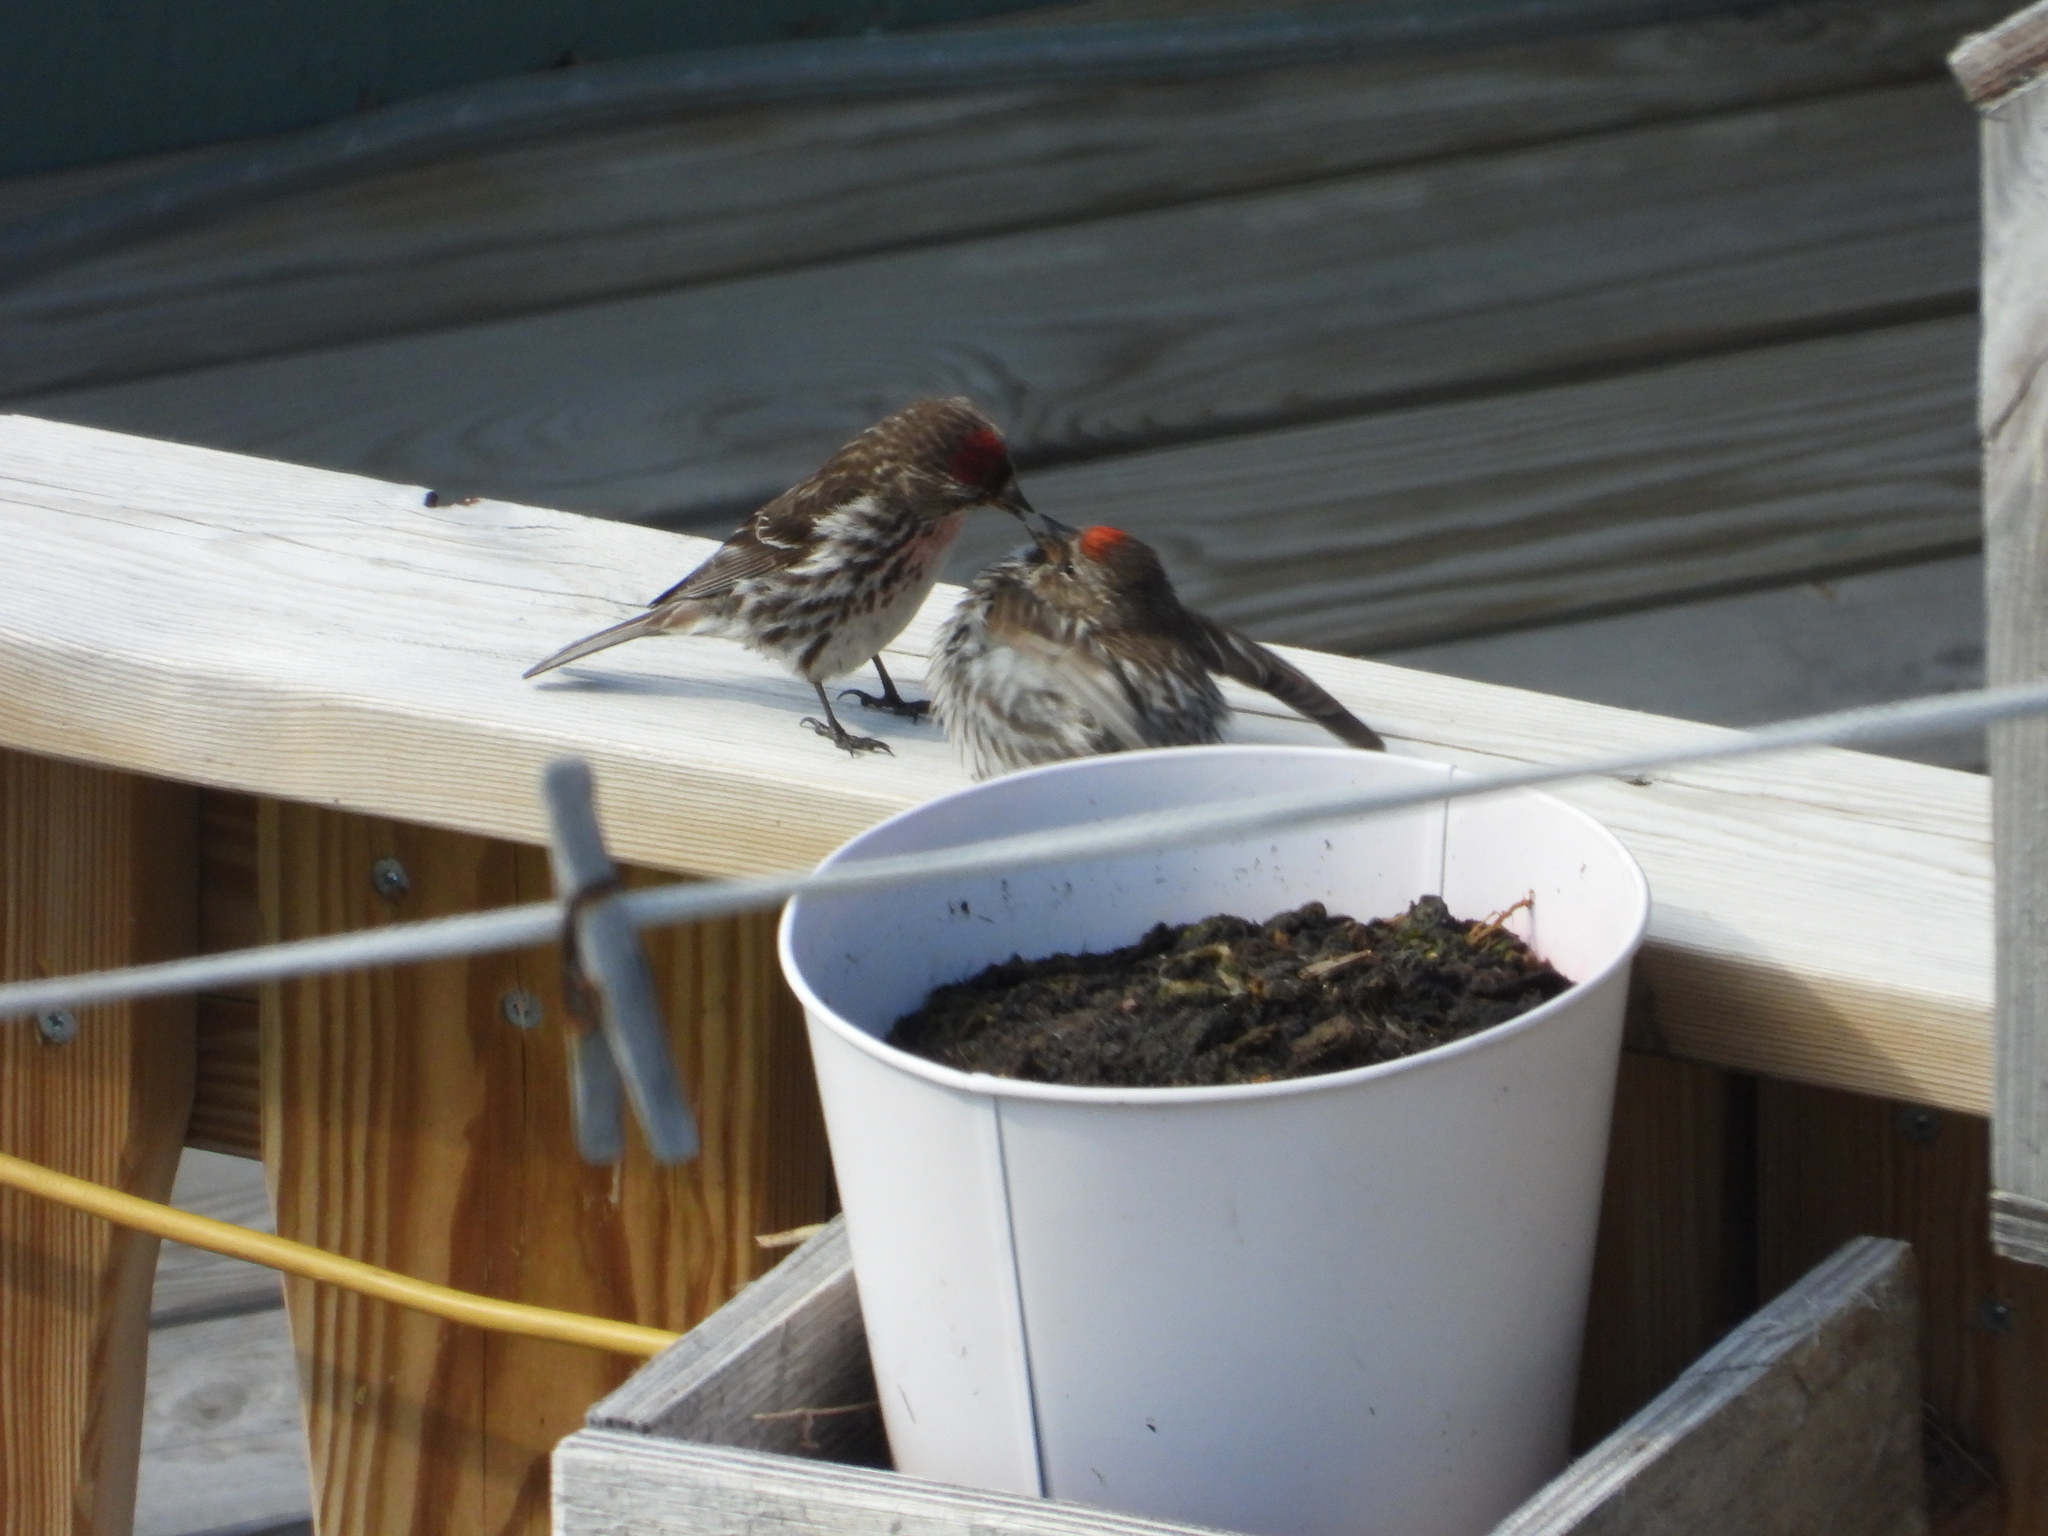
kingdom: Animalia
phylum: Chordata
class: Aves
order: Passeriformes
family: Fringillidae
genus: Acanthis
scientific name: Acanthis flammea
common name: Common redpoll
